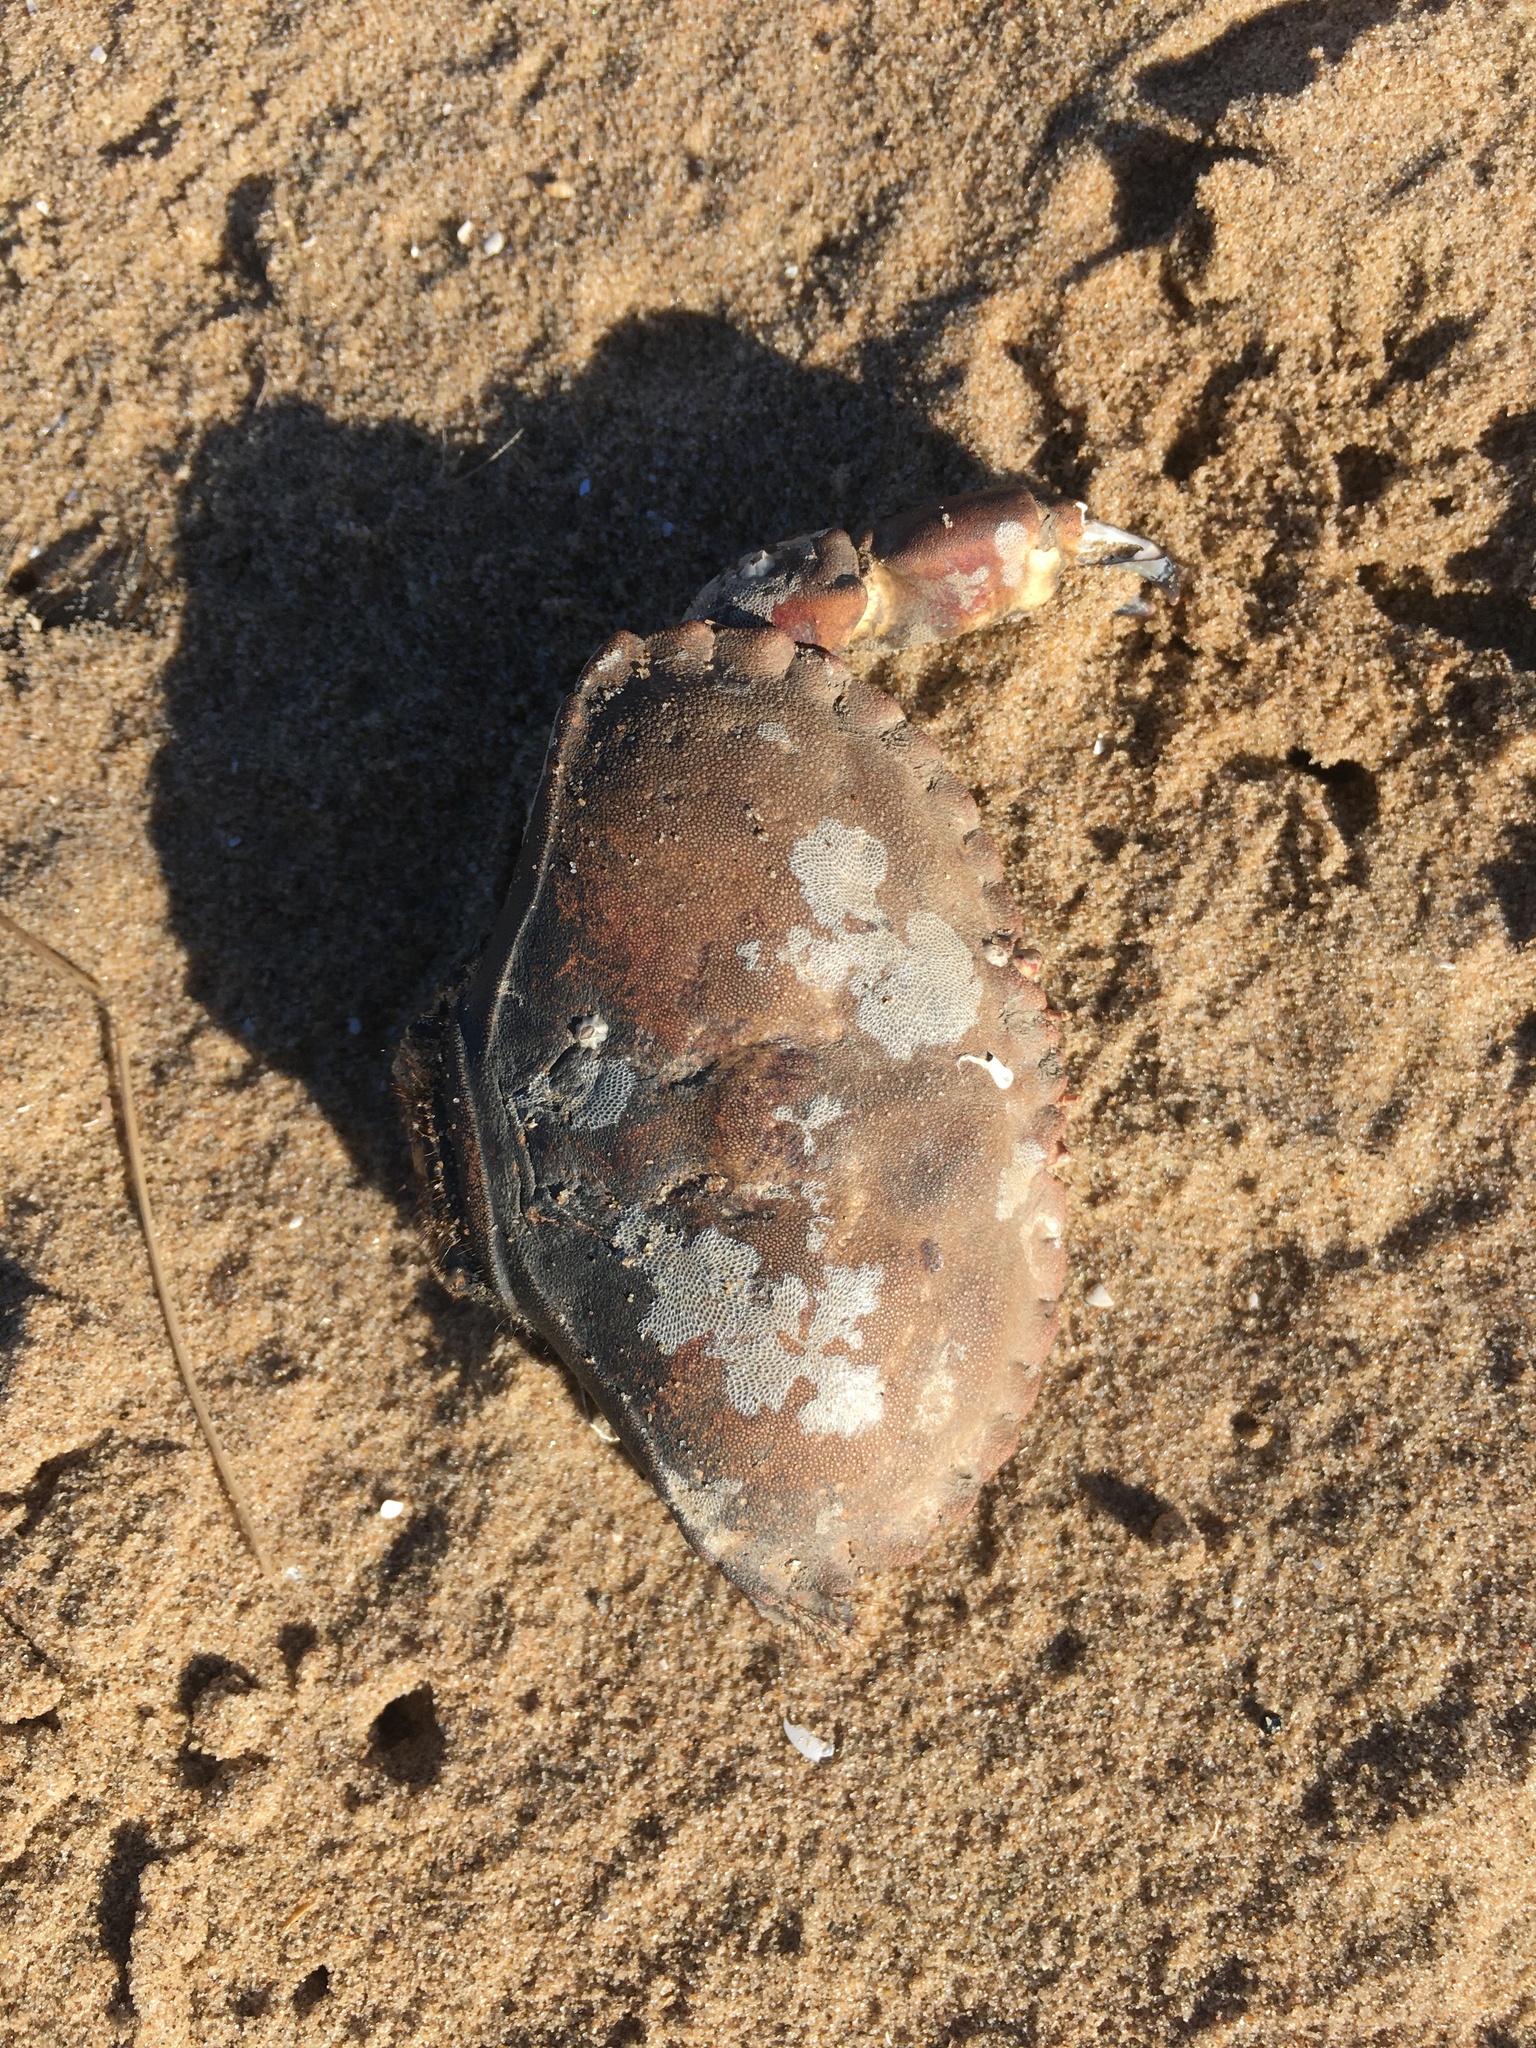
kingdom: Animalia
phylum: Arthropoda
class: Malacostraca
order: Decapoda
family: Cancridae
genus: Cancer
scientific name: Cancer pagurus
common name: Edible crab
